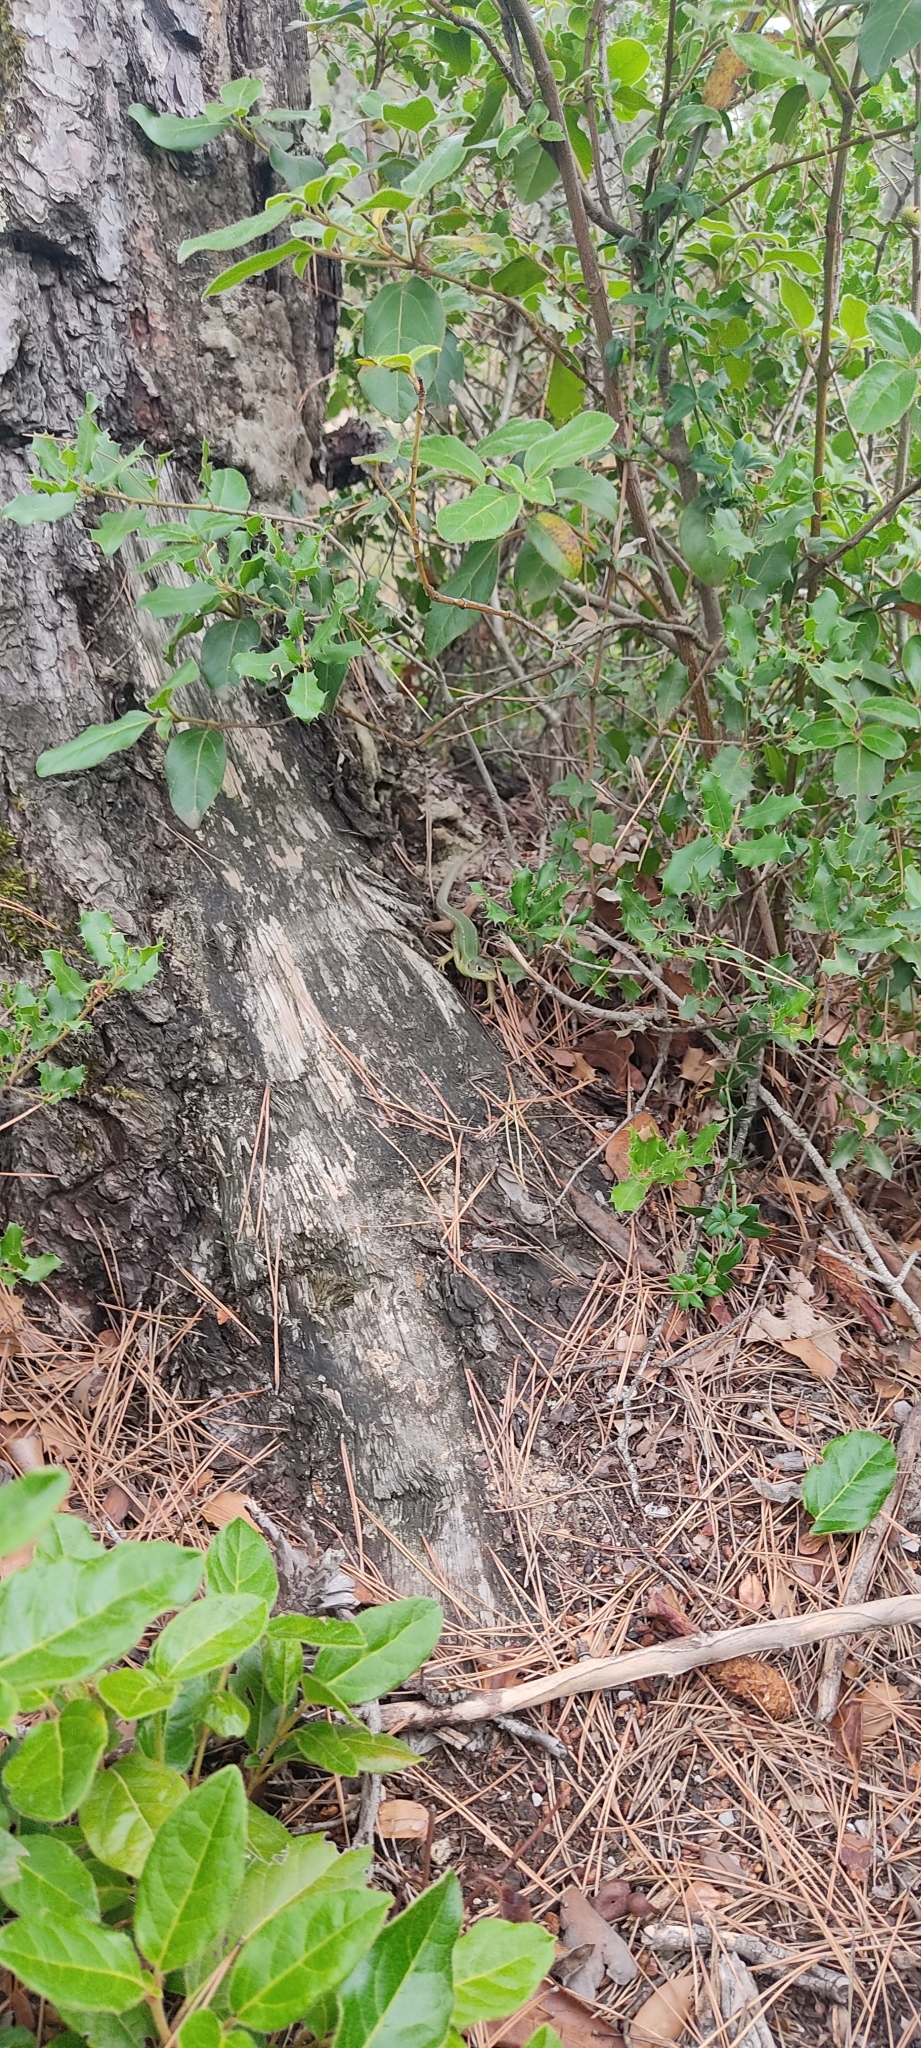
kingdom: Animalia
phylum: Chordata
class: Squamata
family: Lacertidae
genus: Lacerta
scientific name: Lacerta bilineata
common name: Western green lizard
